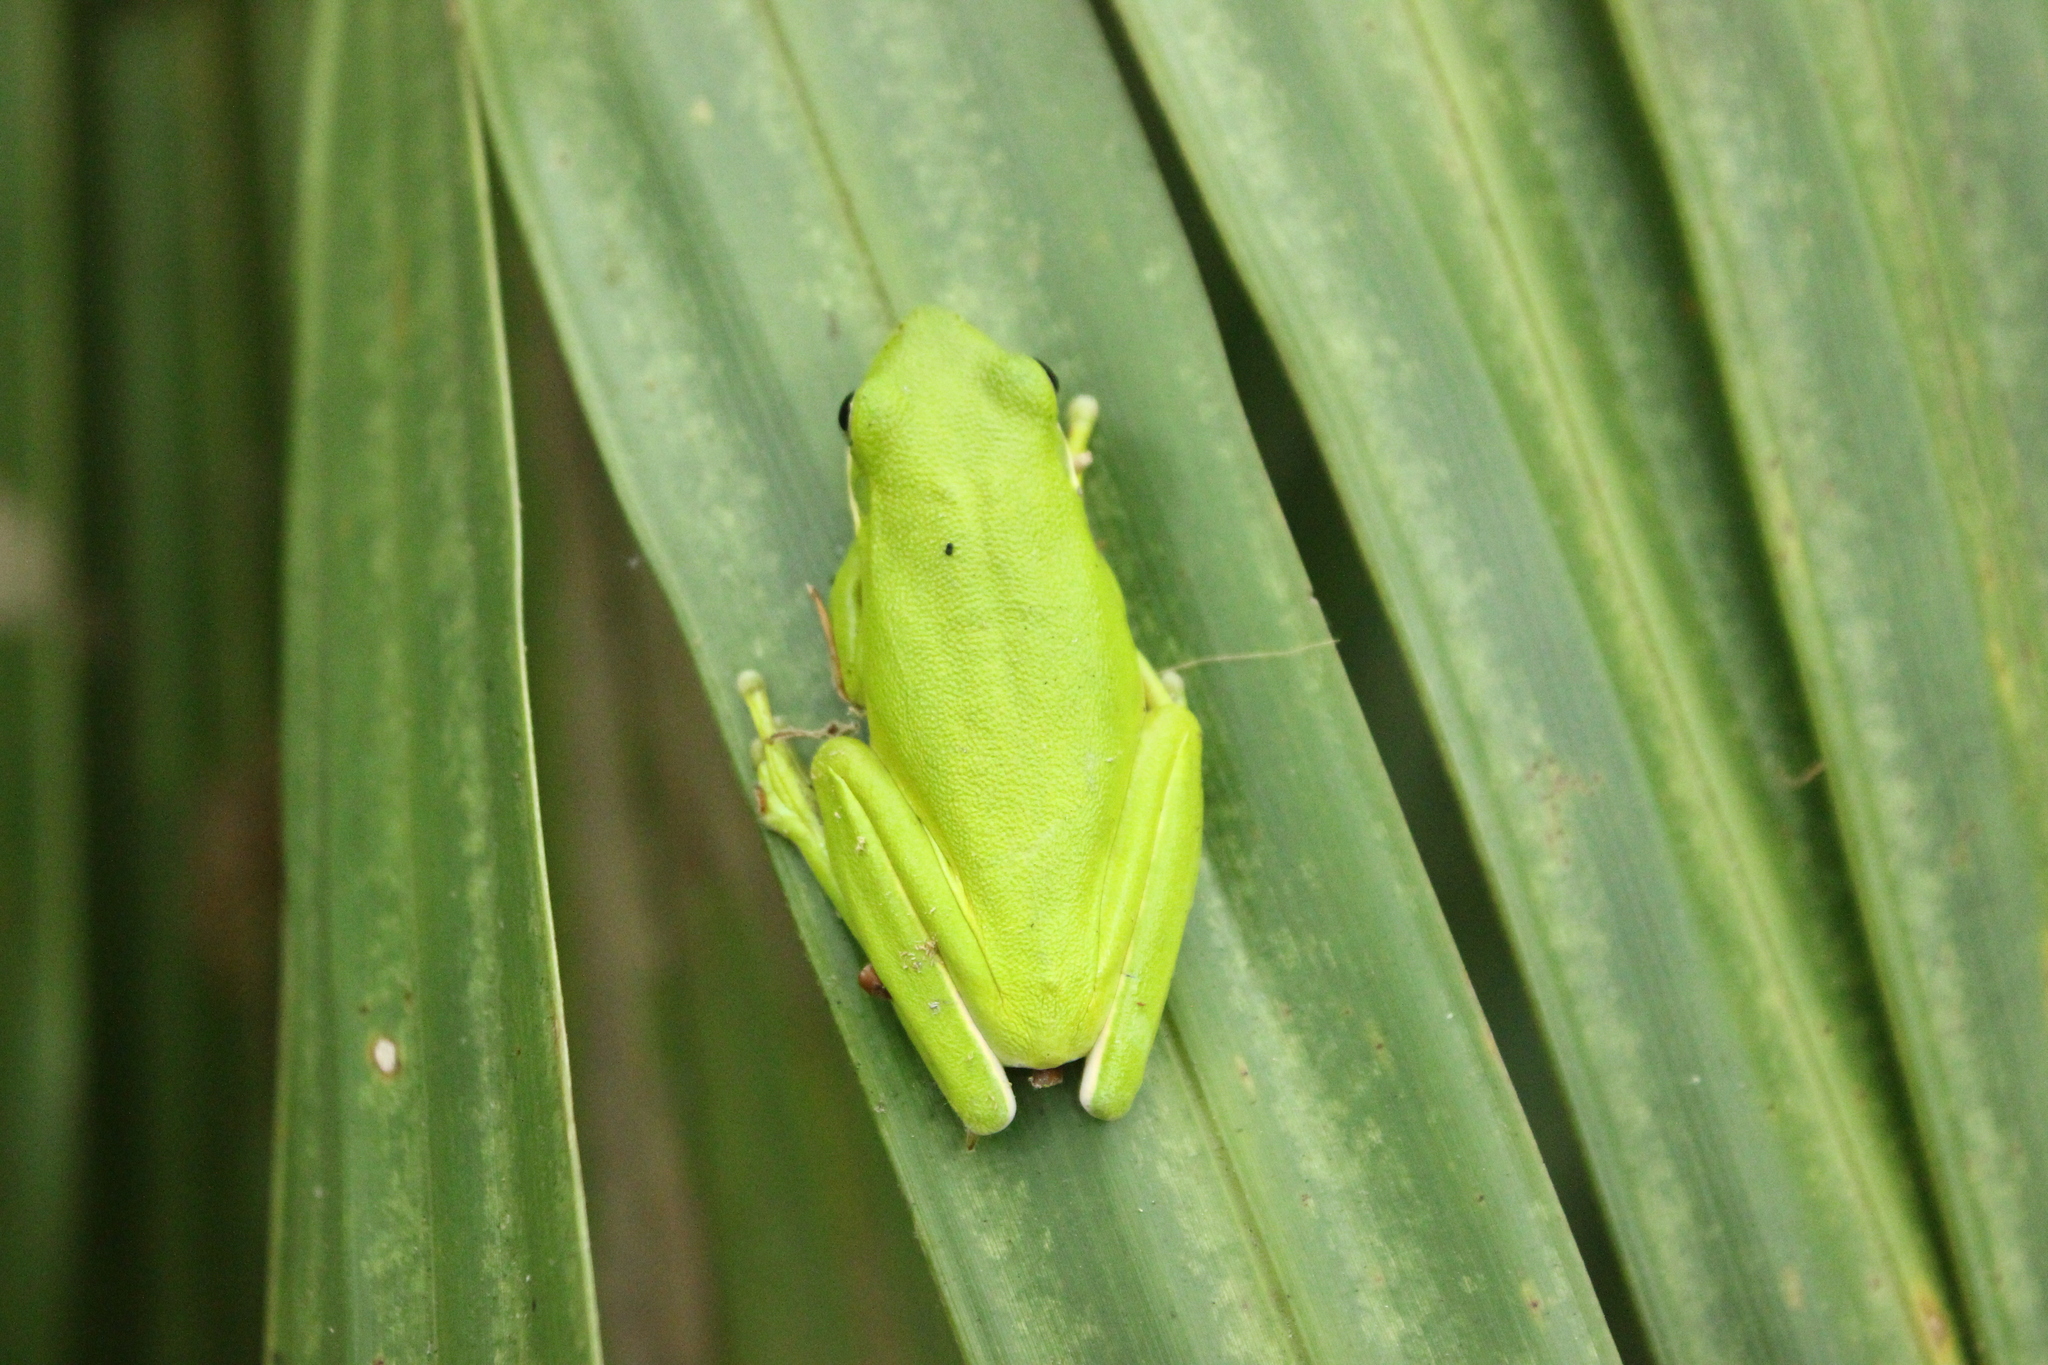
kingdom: Animalia
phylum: Chordata
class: Amphibia
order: Anura
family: Hylidae
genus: Dryophytes
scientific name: Dryophytes cinereus
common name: Green treefrog
